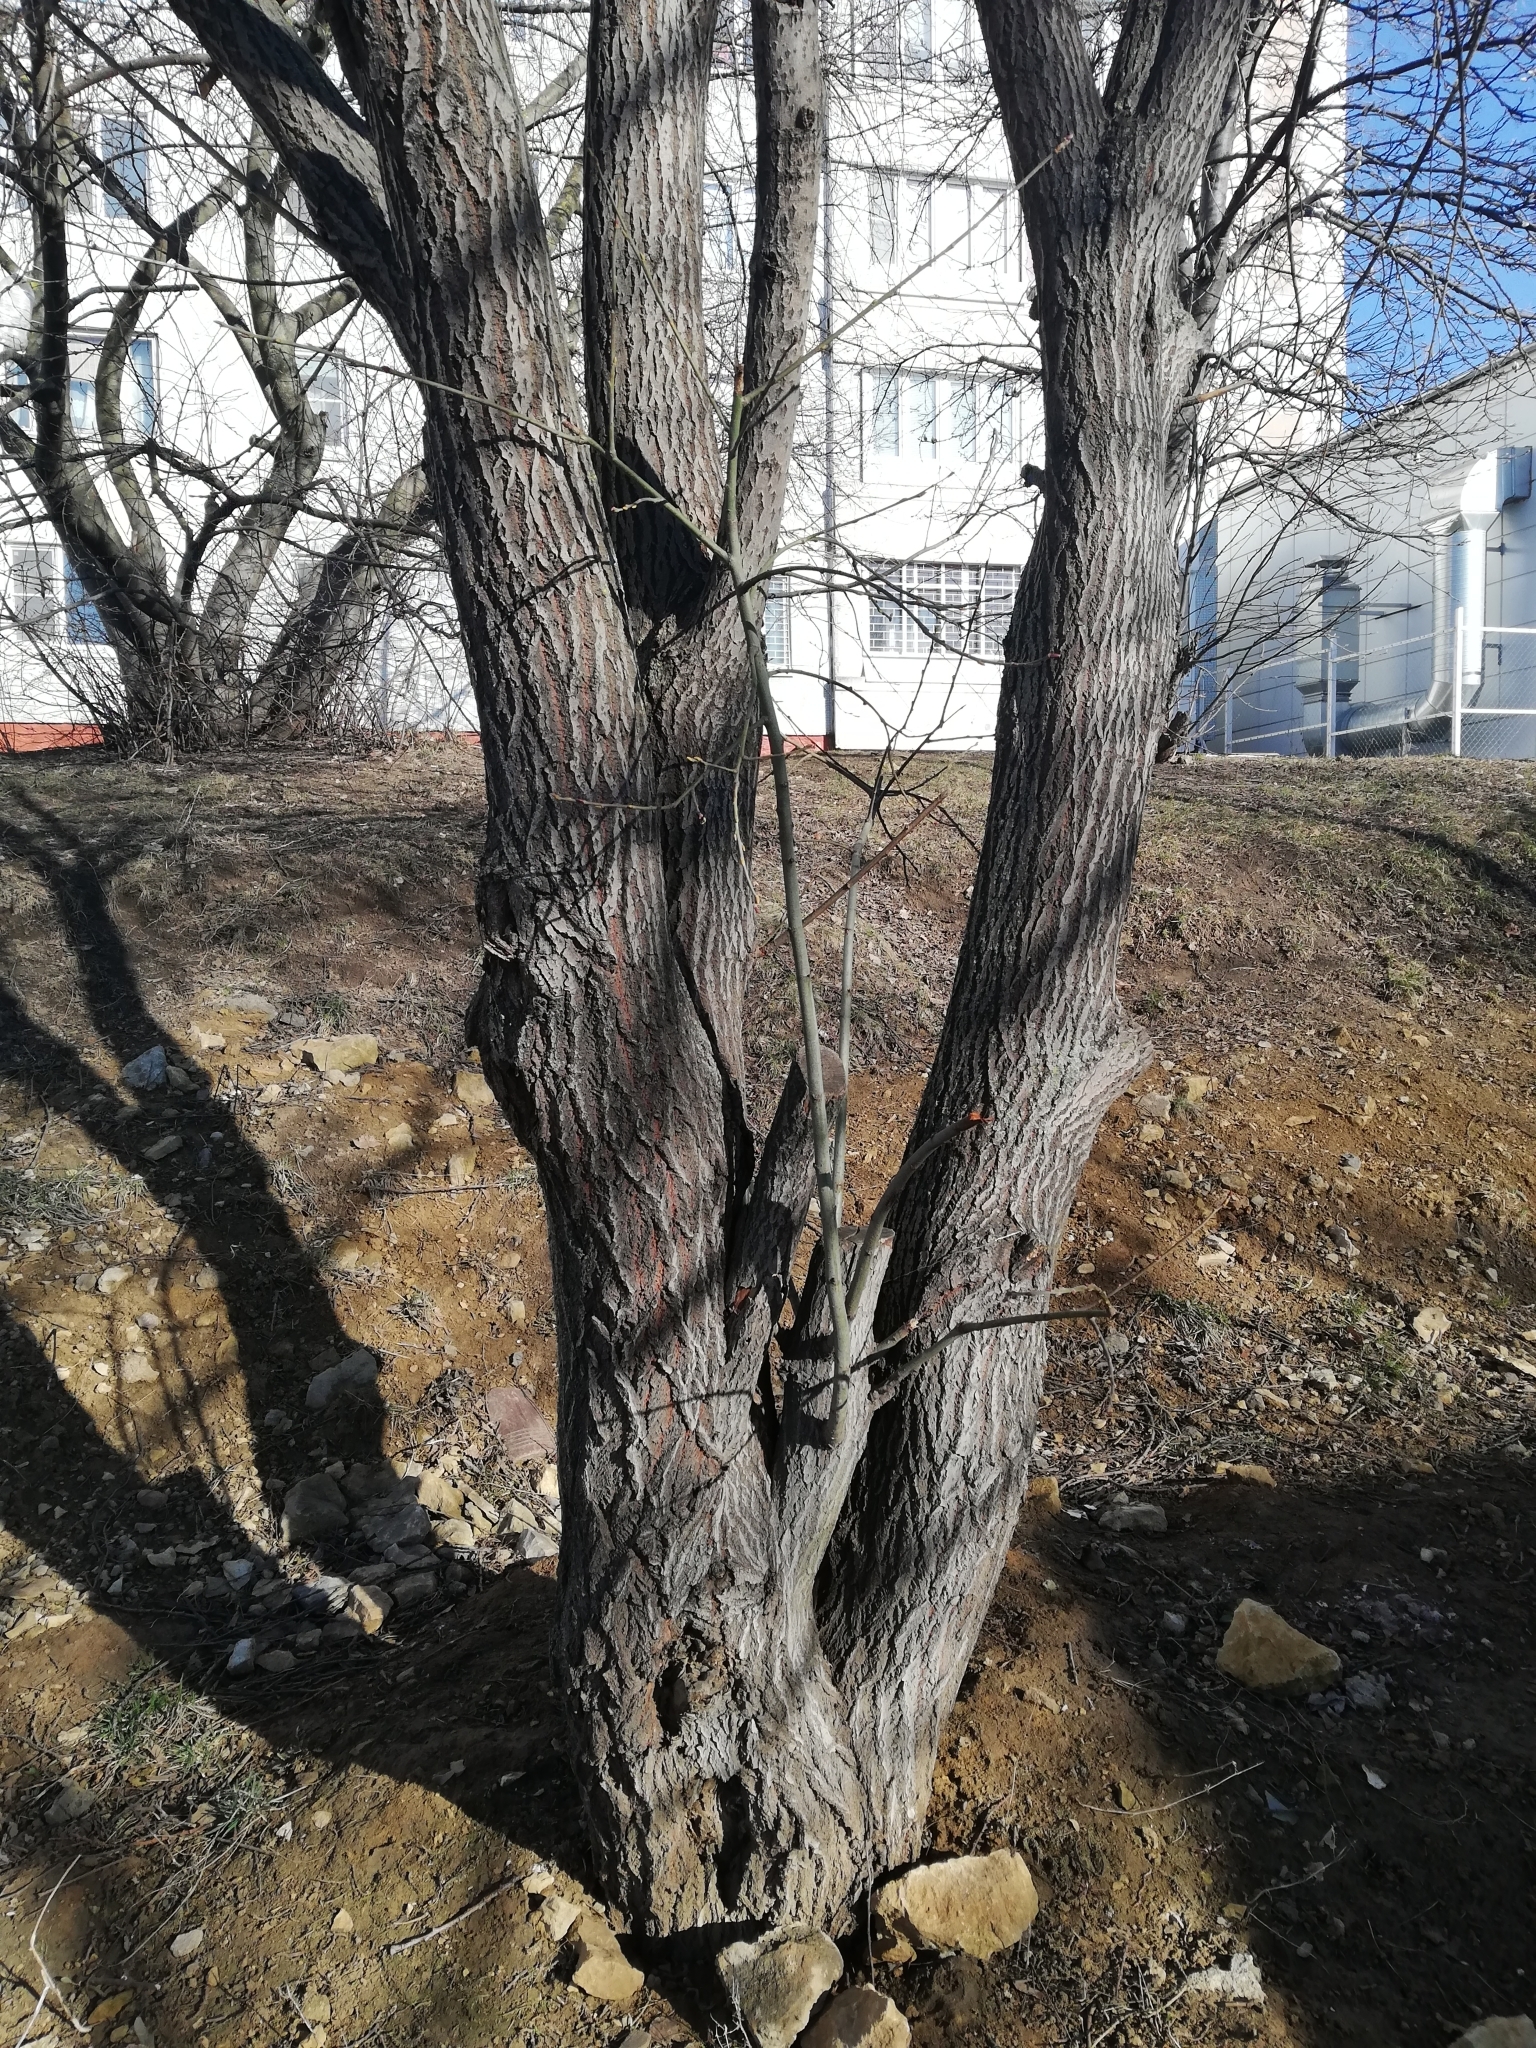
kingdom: Plantae
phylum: Tracheophyta
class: Magnoliopsida
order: Malpighiales
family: Salicaceae
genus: Salix
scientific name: Salix caprea
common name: Goat willow
